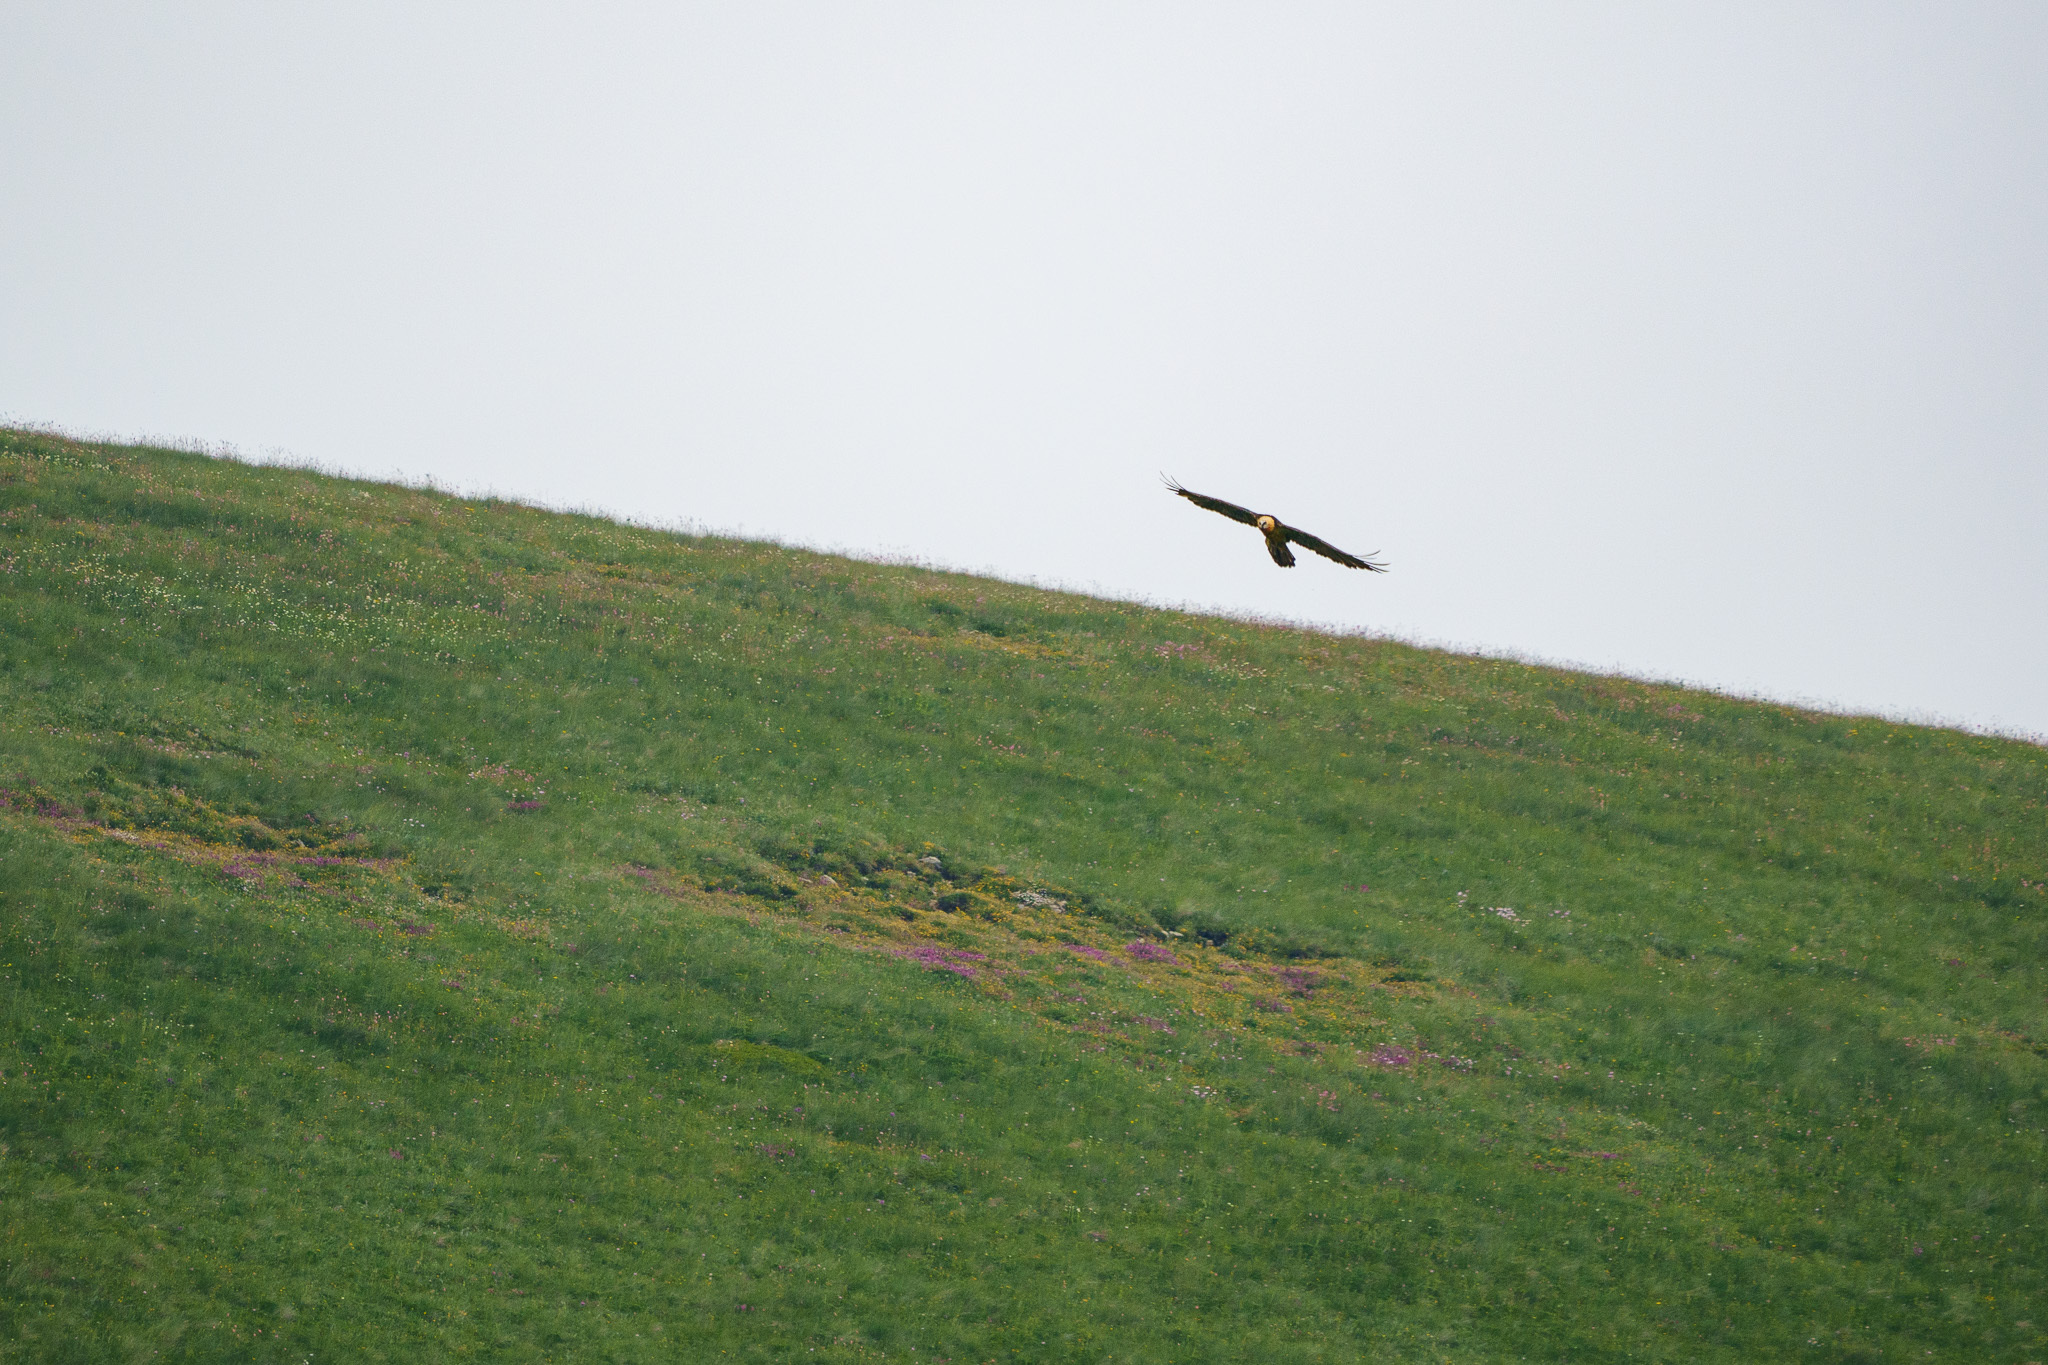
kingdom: Animalia
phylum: Chordata
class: Aves
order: Accipitriformes
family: Accipitridae
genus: Gypaetus
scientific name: Gypaetus barbatus
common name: Bearded vulture
